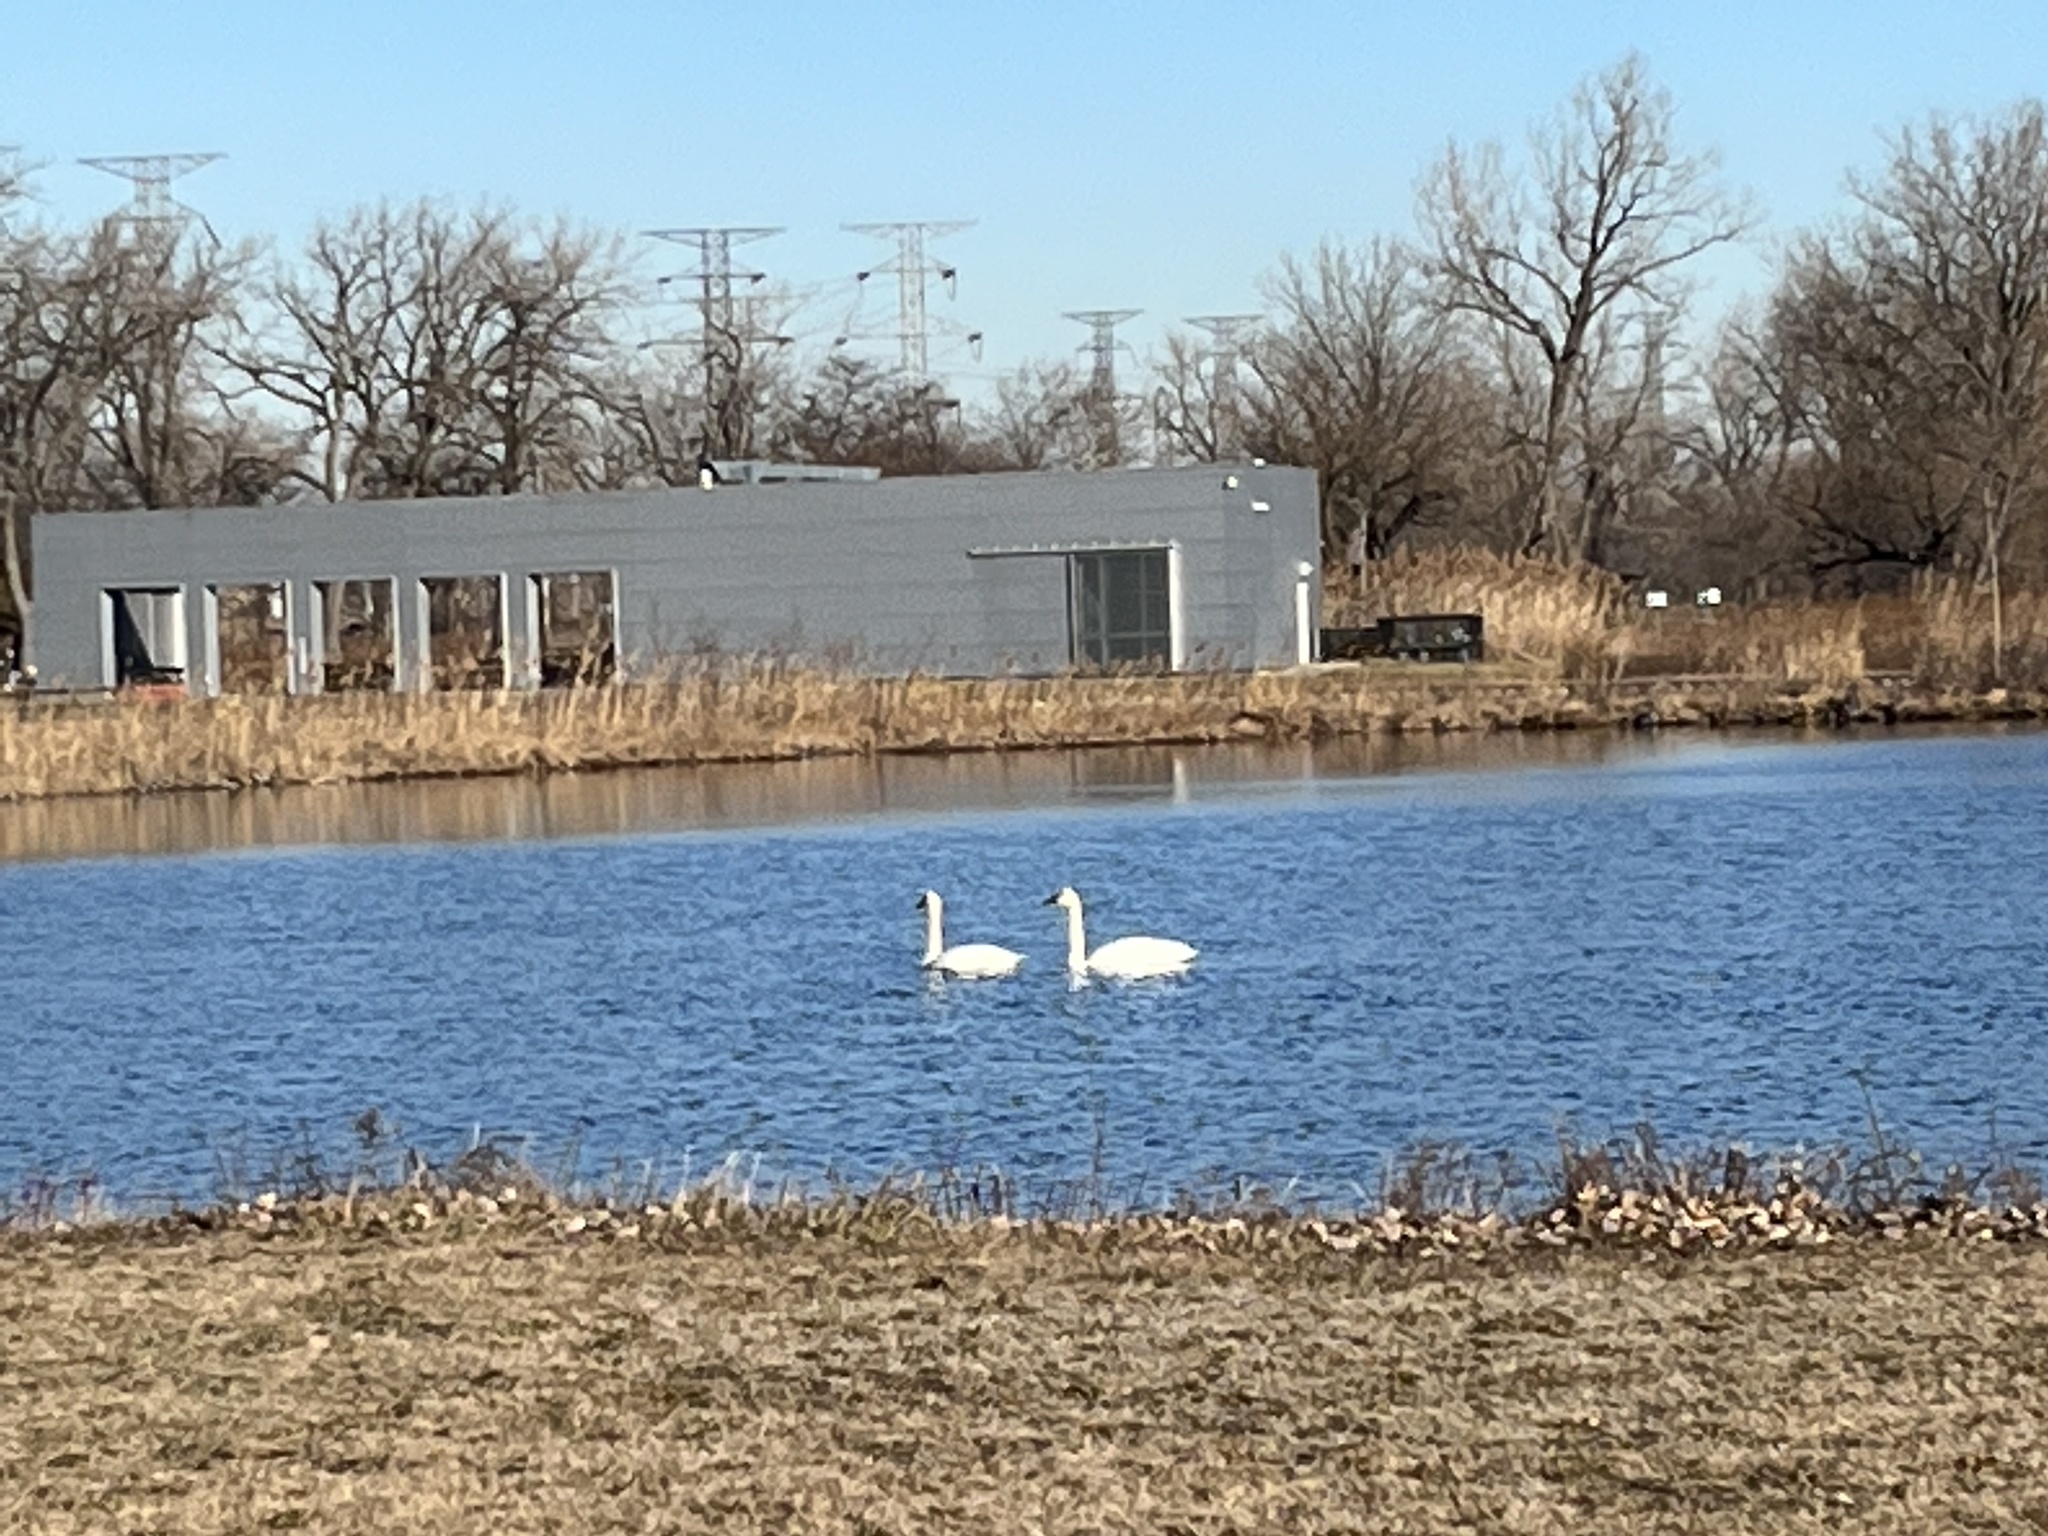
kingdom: Animalia
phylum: Chordata
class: Aves
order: Anseriformes
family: Anatidae
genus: Cygnus
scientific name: Cygnus buccinator
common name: Trumpeter swan
